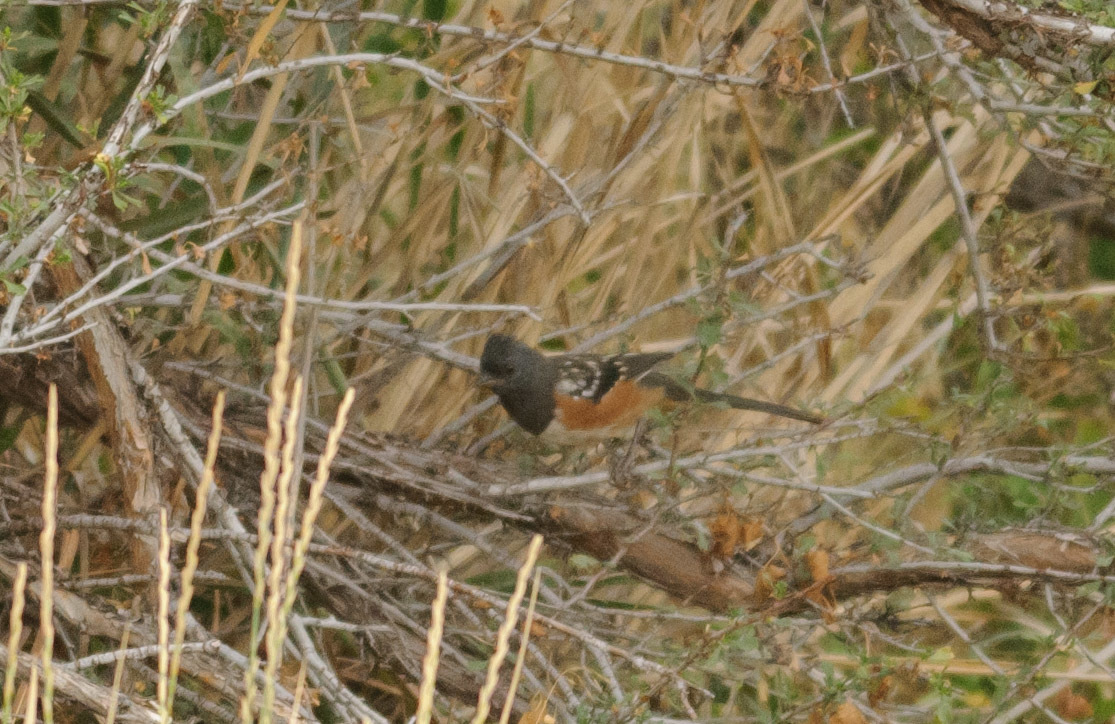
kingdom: Animalia
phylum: Chordata
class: Aves
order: Passeriformes
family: Passerellidae
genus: Pipilo
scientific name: Pipilo maculatus
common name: Spotted towhee
